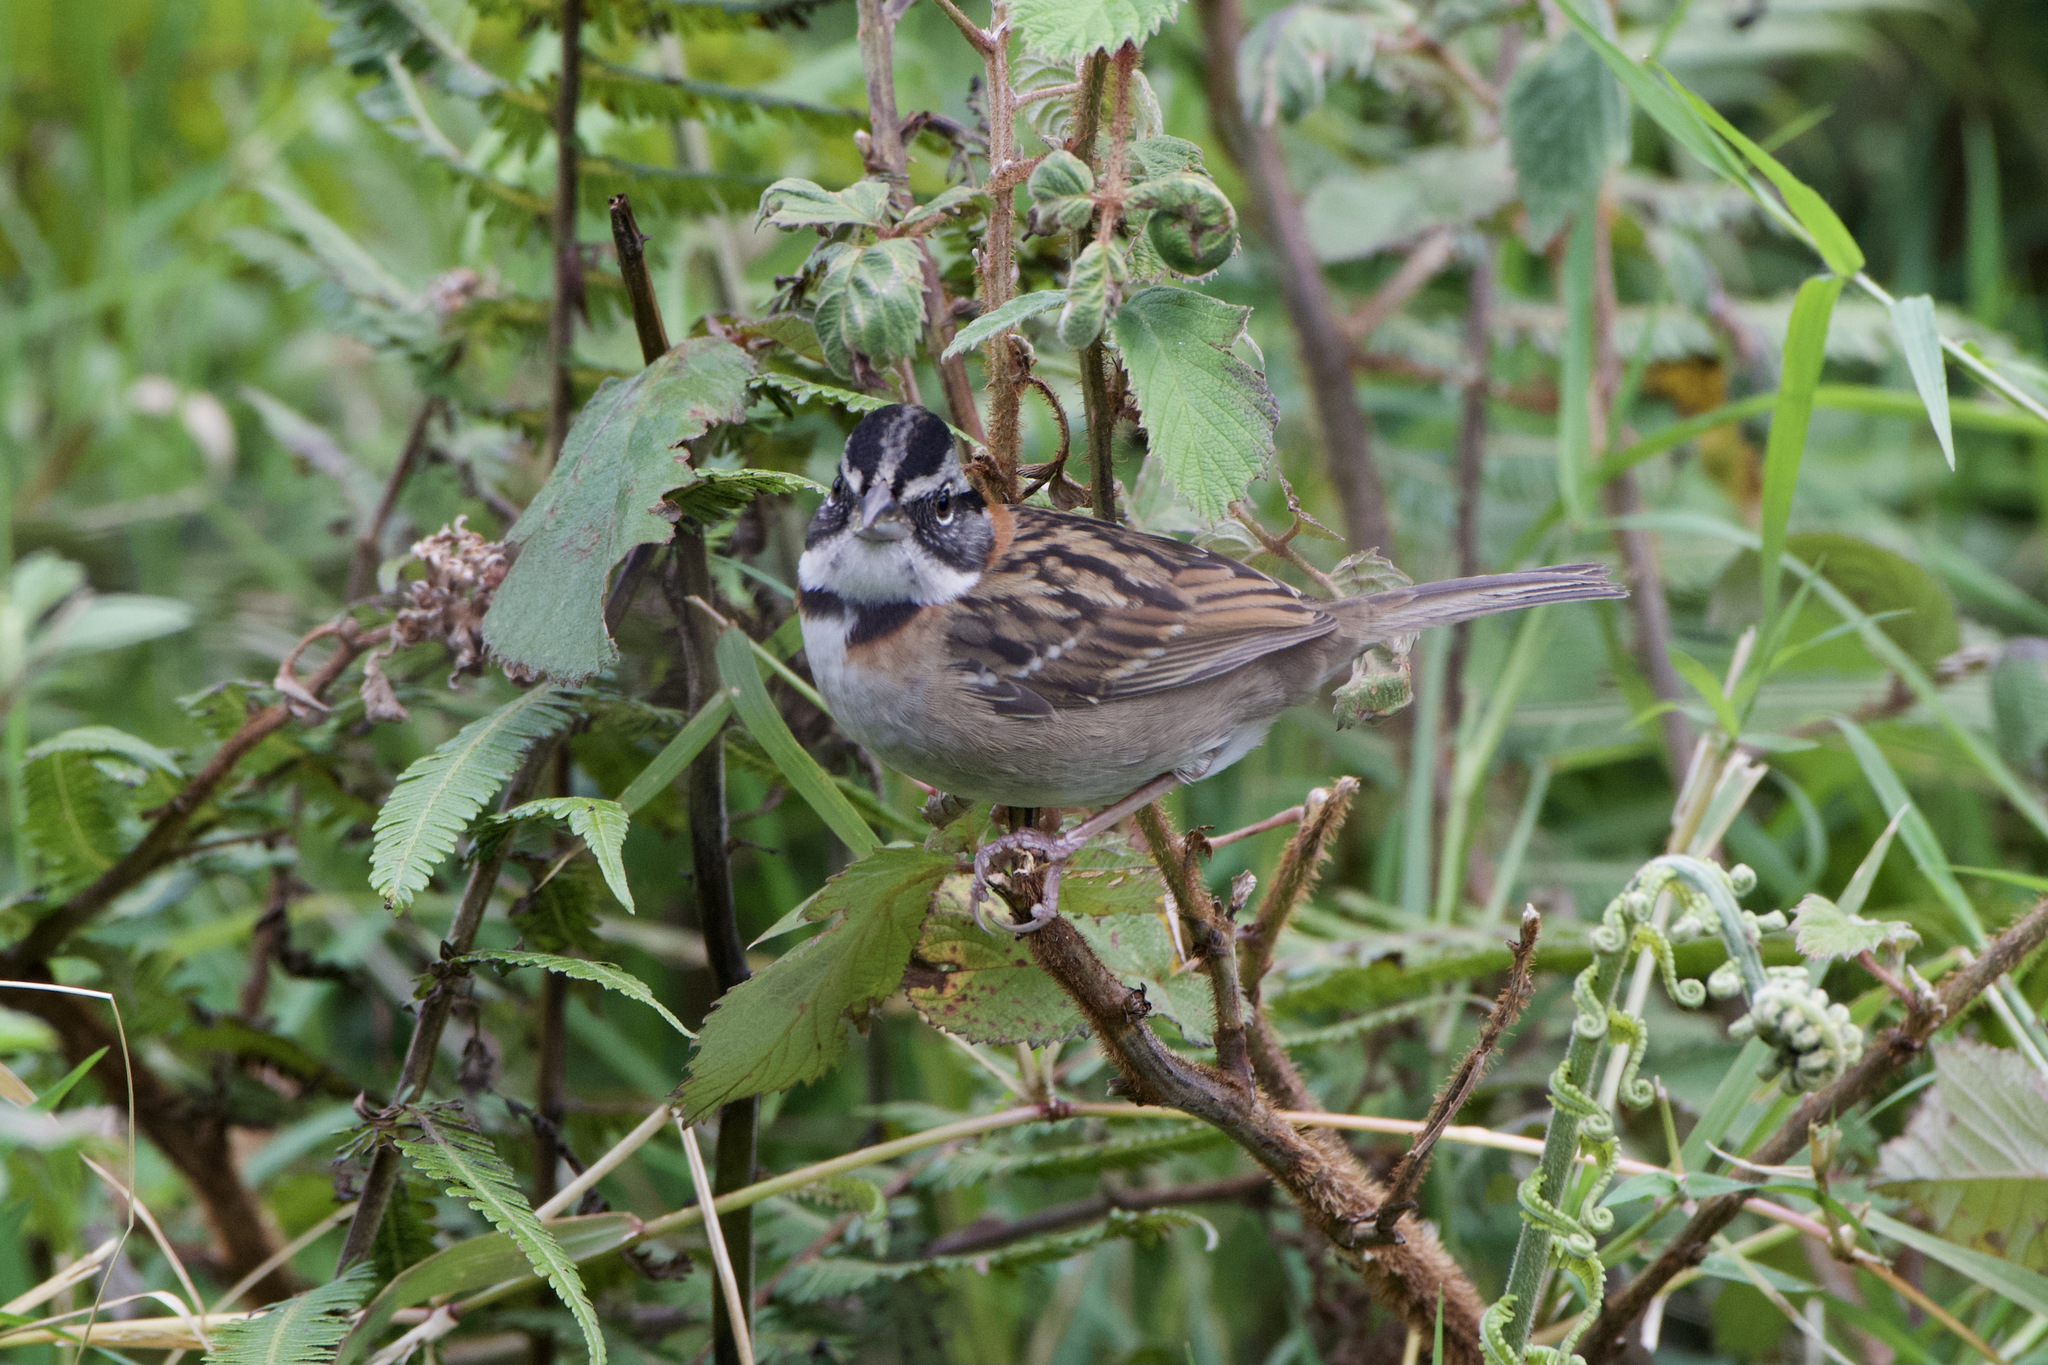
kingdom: Animalia
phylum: Chordata
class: Aves
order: Passeriformes
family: Passerellidae
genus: Zonotrichia
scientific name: Zonotrichia capensis
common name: Rufous-collared sparrow
